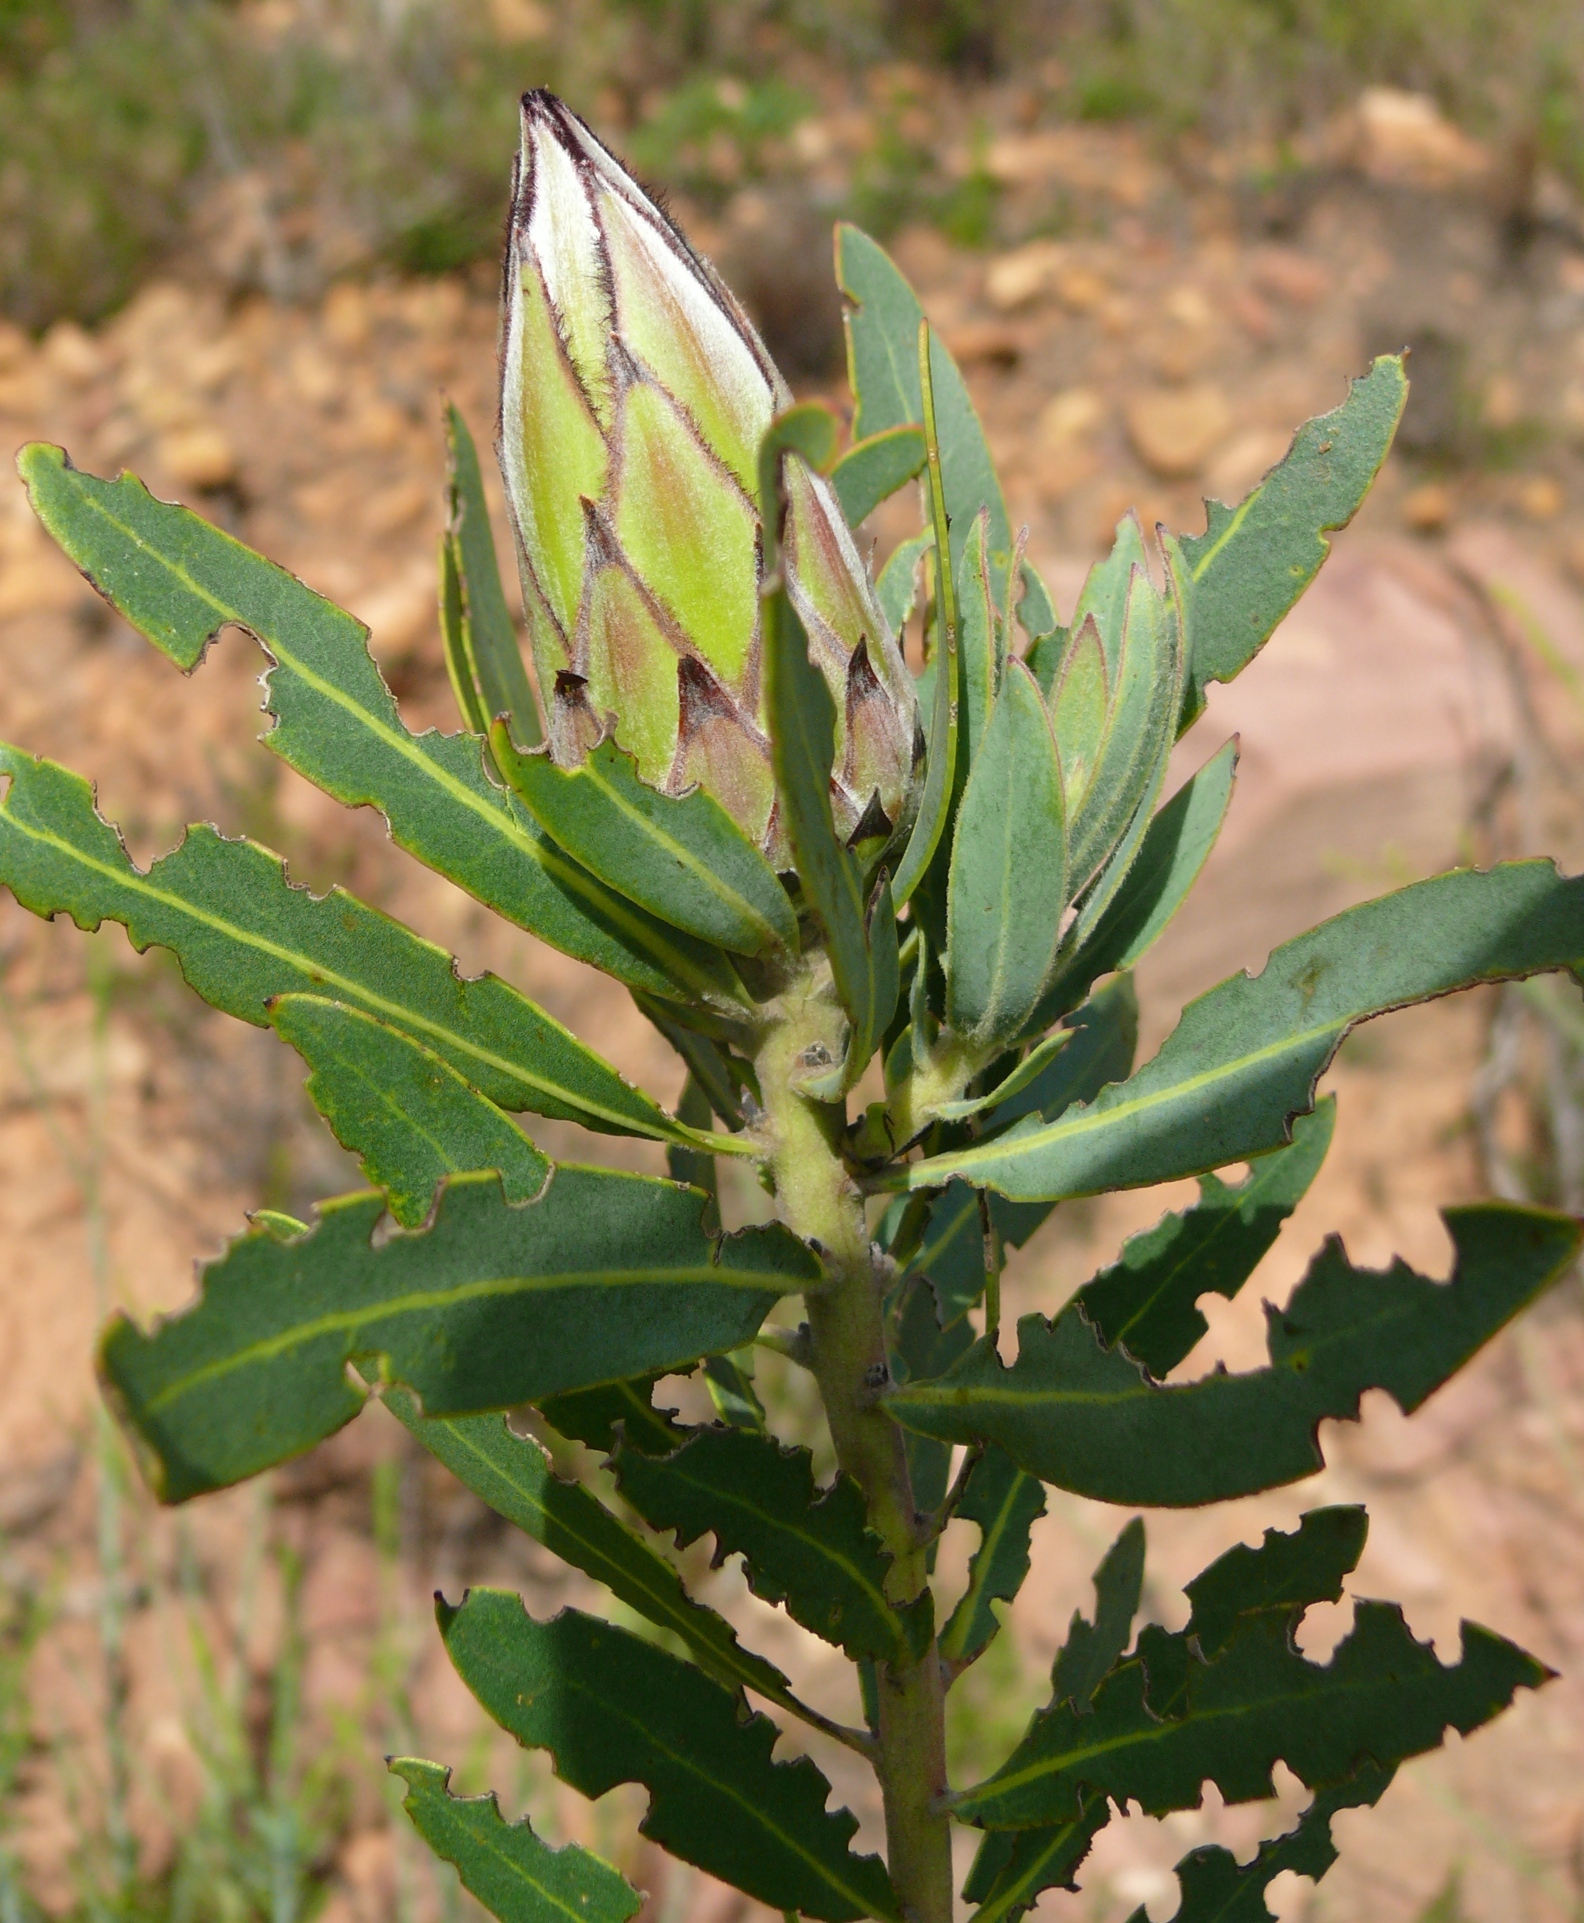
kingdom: Plantae
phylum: Tracheophyta
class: Magnoliopsida
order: Proteales
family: Proteaceae
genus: Protea
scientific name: Protea
